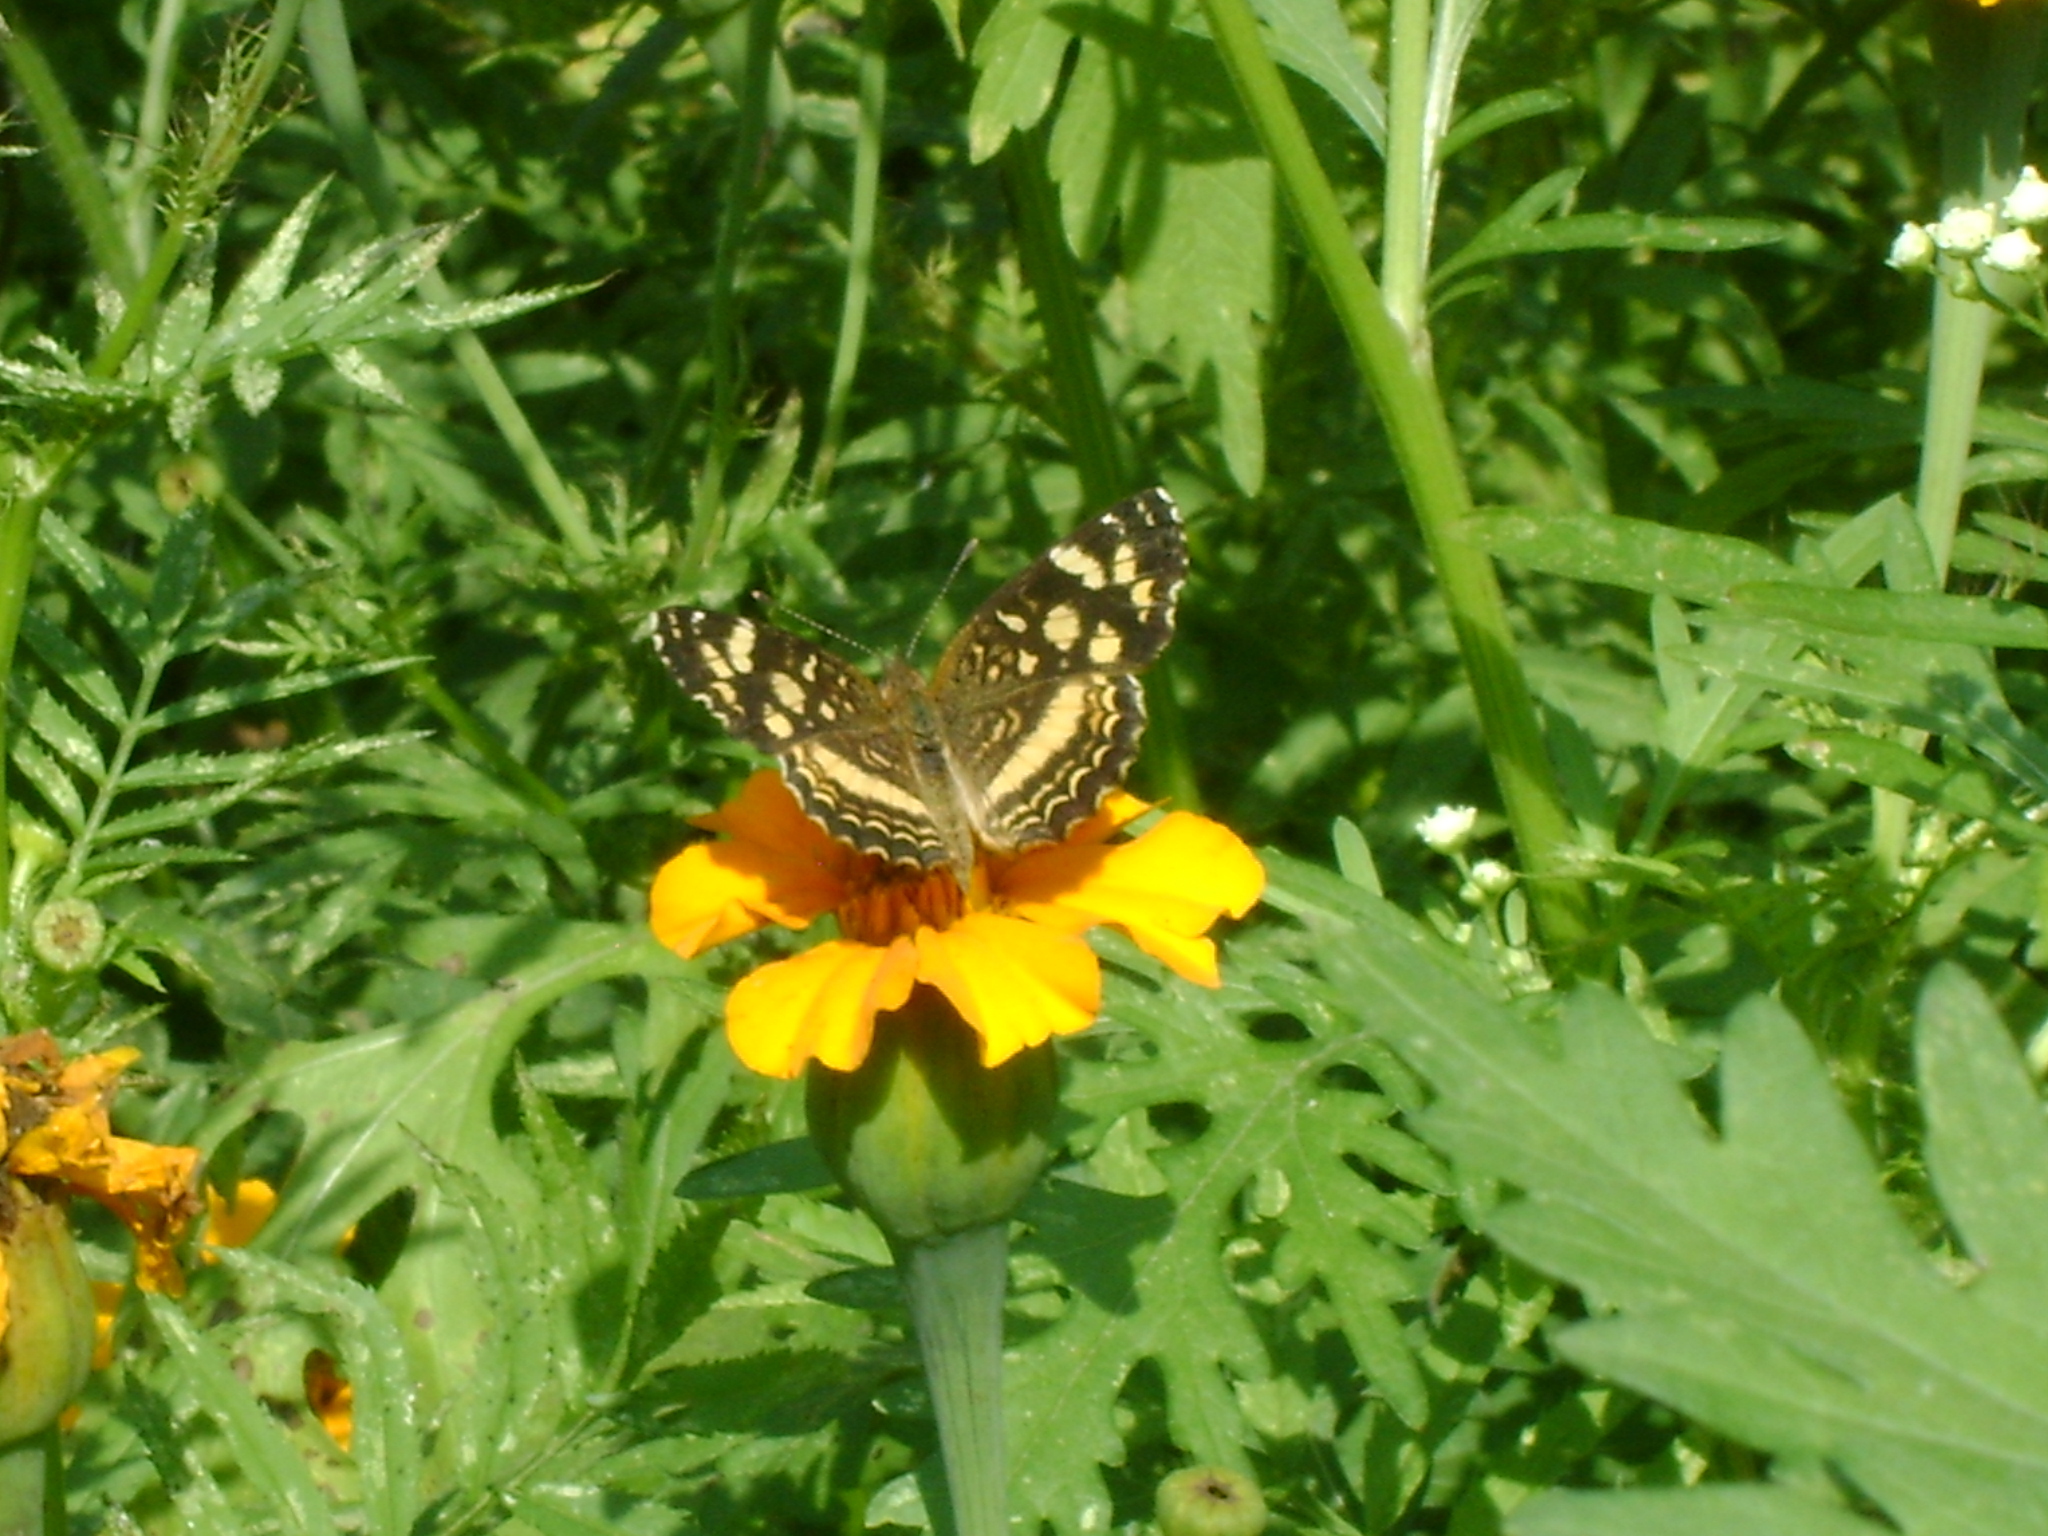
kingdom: Animalia
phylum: Arthropoda
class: Insecta
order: Lepidoptera
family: Nymphalidae
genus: Anthanassa
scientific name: Anthanassa tulcis
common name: Pale-banded crescent
